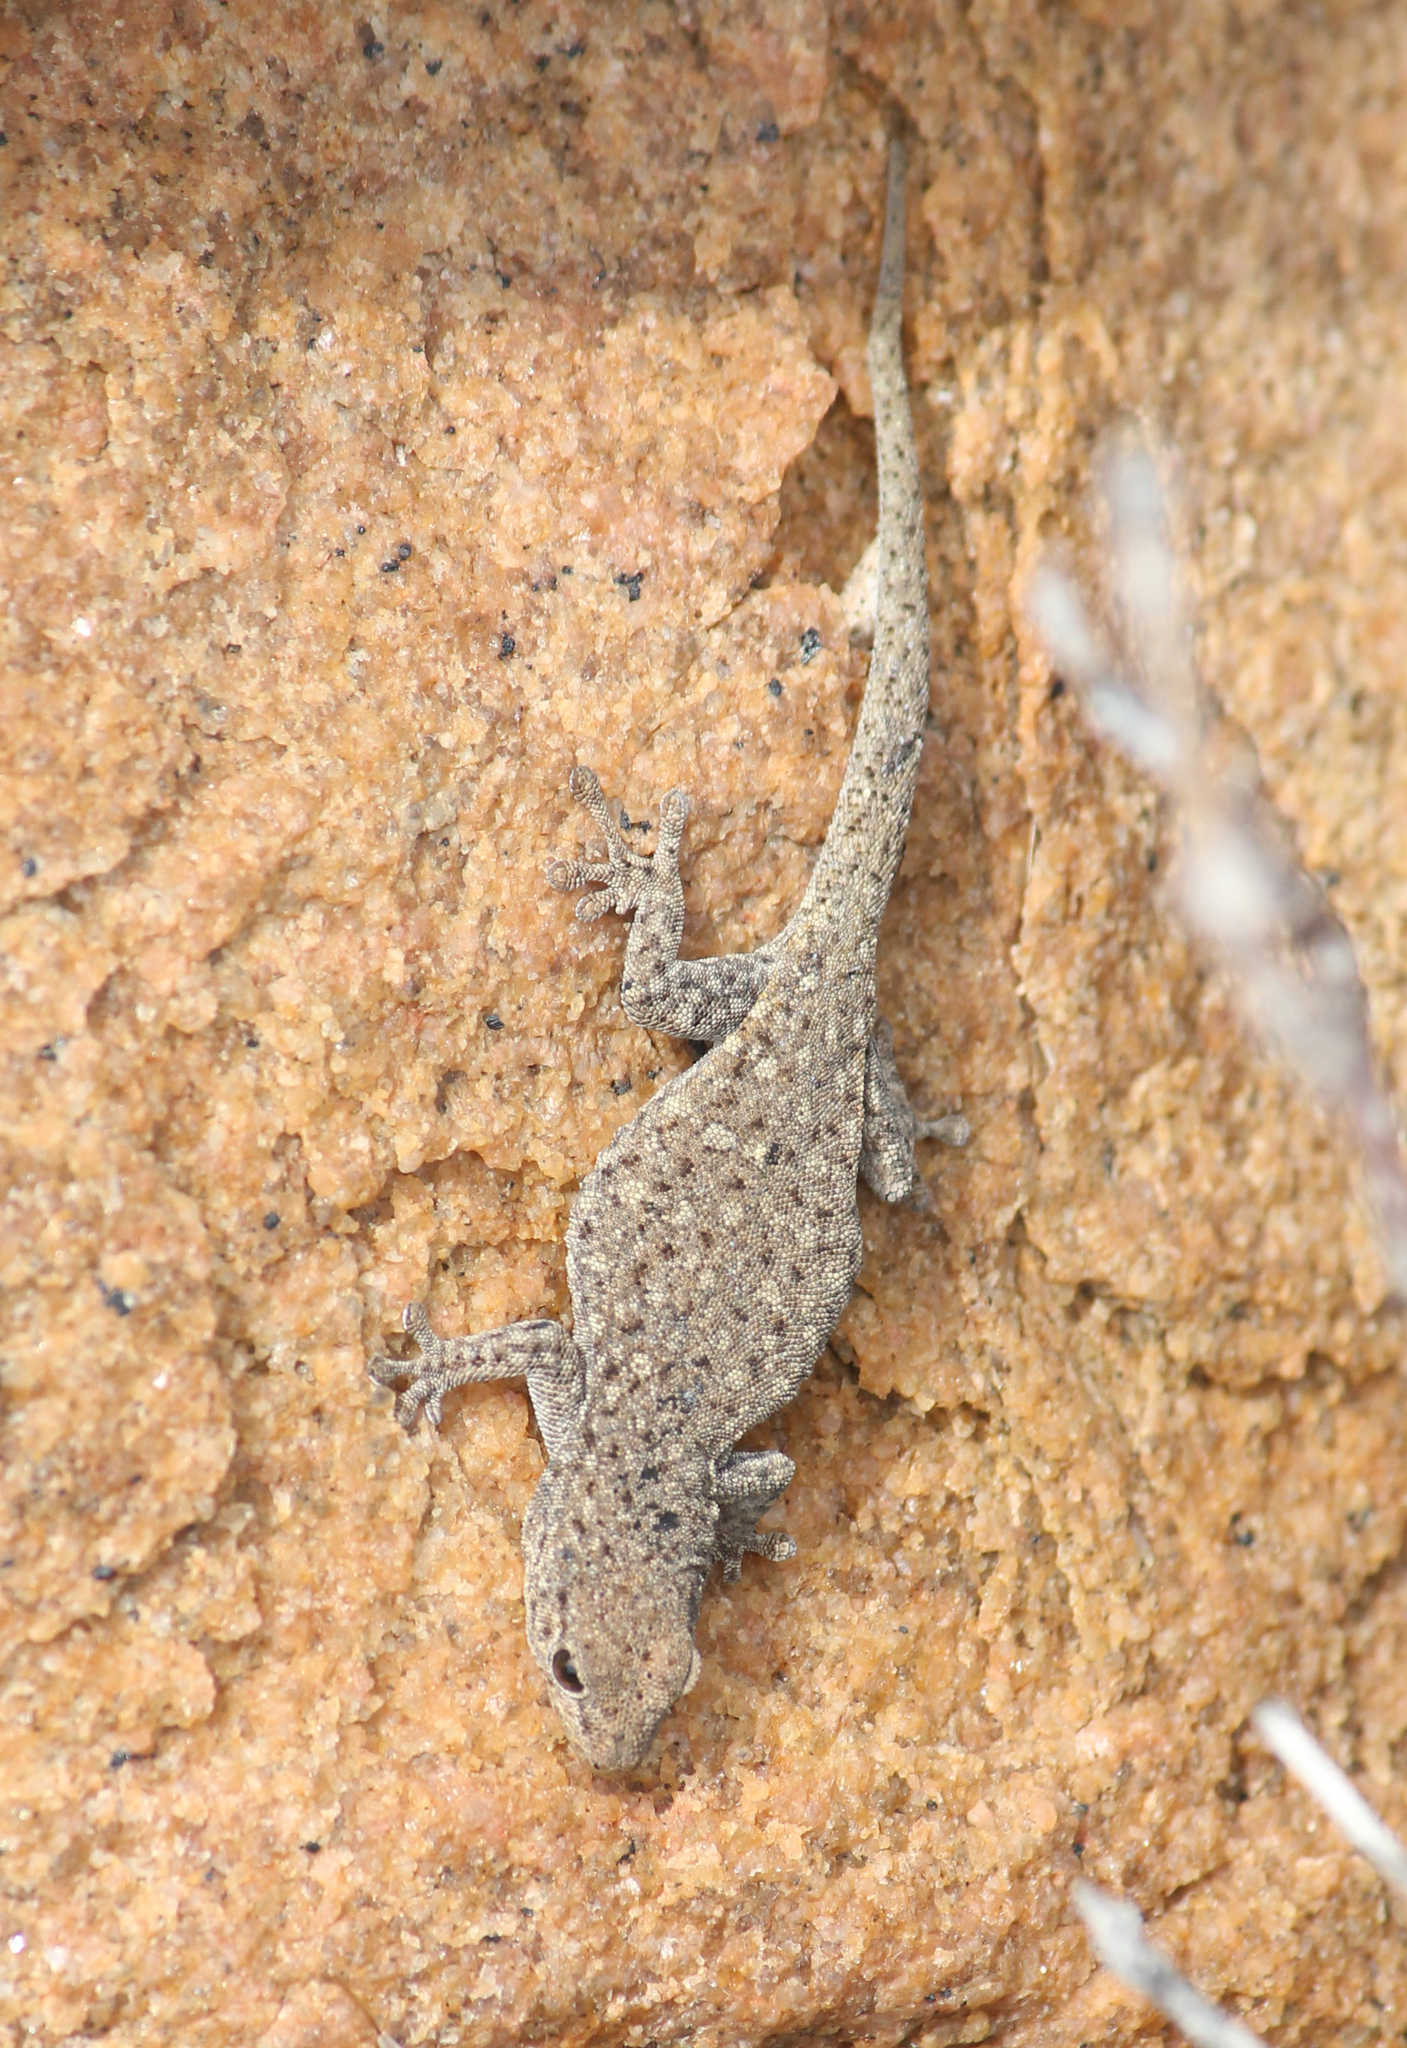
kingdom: Animalia
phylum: Chordata
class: Squamata
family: Gekkonidae
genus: Rhoptropella
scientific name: Rhoptropella ocellata
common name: Namaqua day gecko
